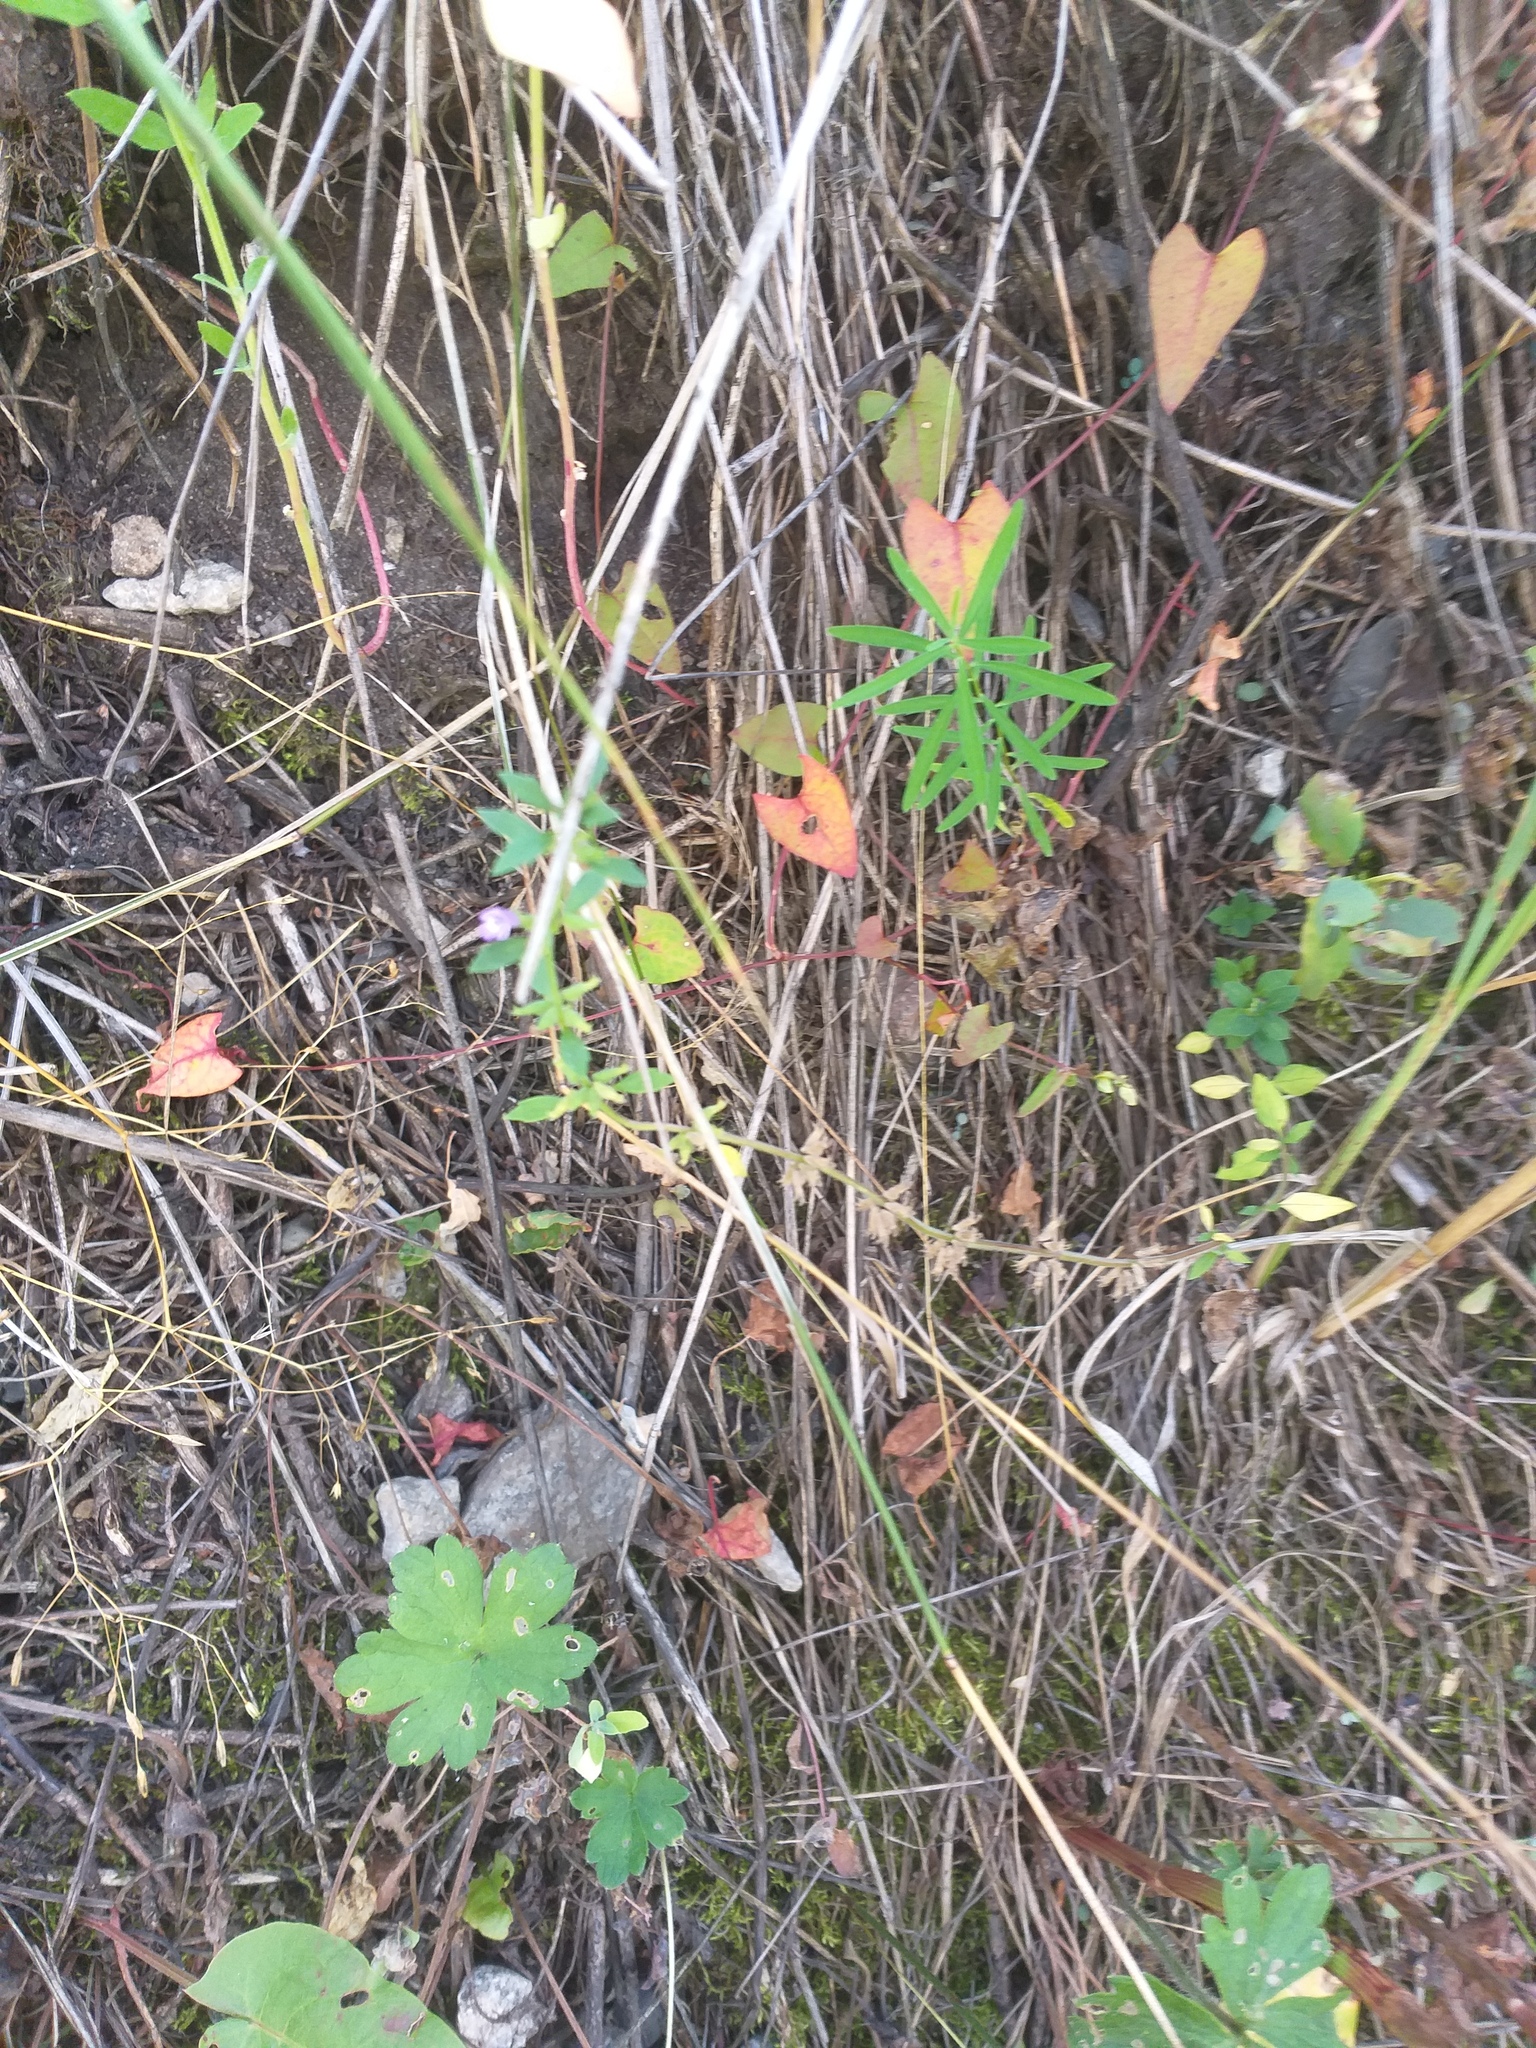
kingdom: Plantae
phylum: Tracheophyta
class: Magnoliopsida
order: Lamiales
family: Lamiaceae
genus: Clinopodium
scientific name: Clinopodium acinos
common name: Basil thyme
